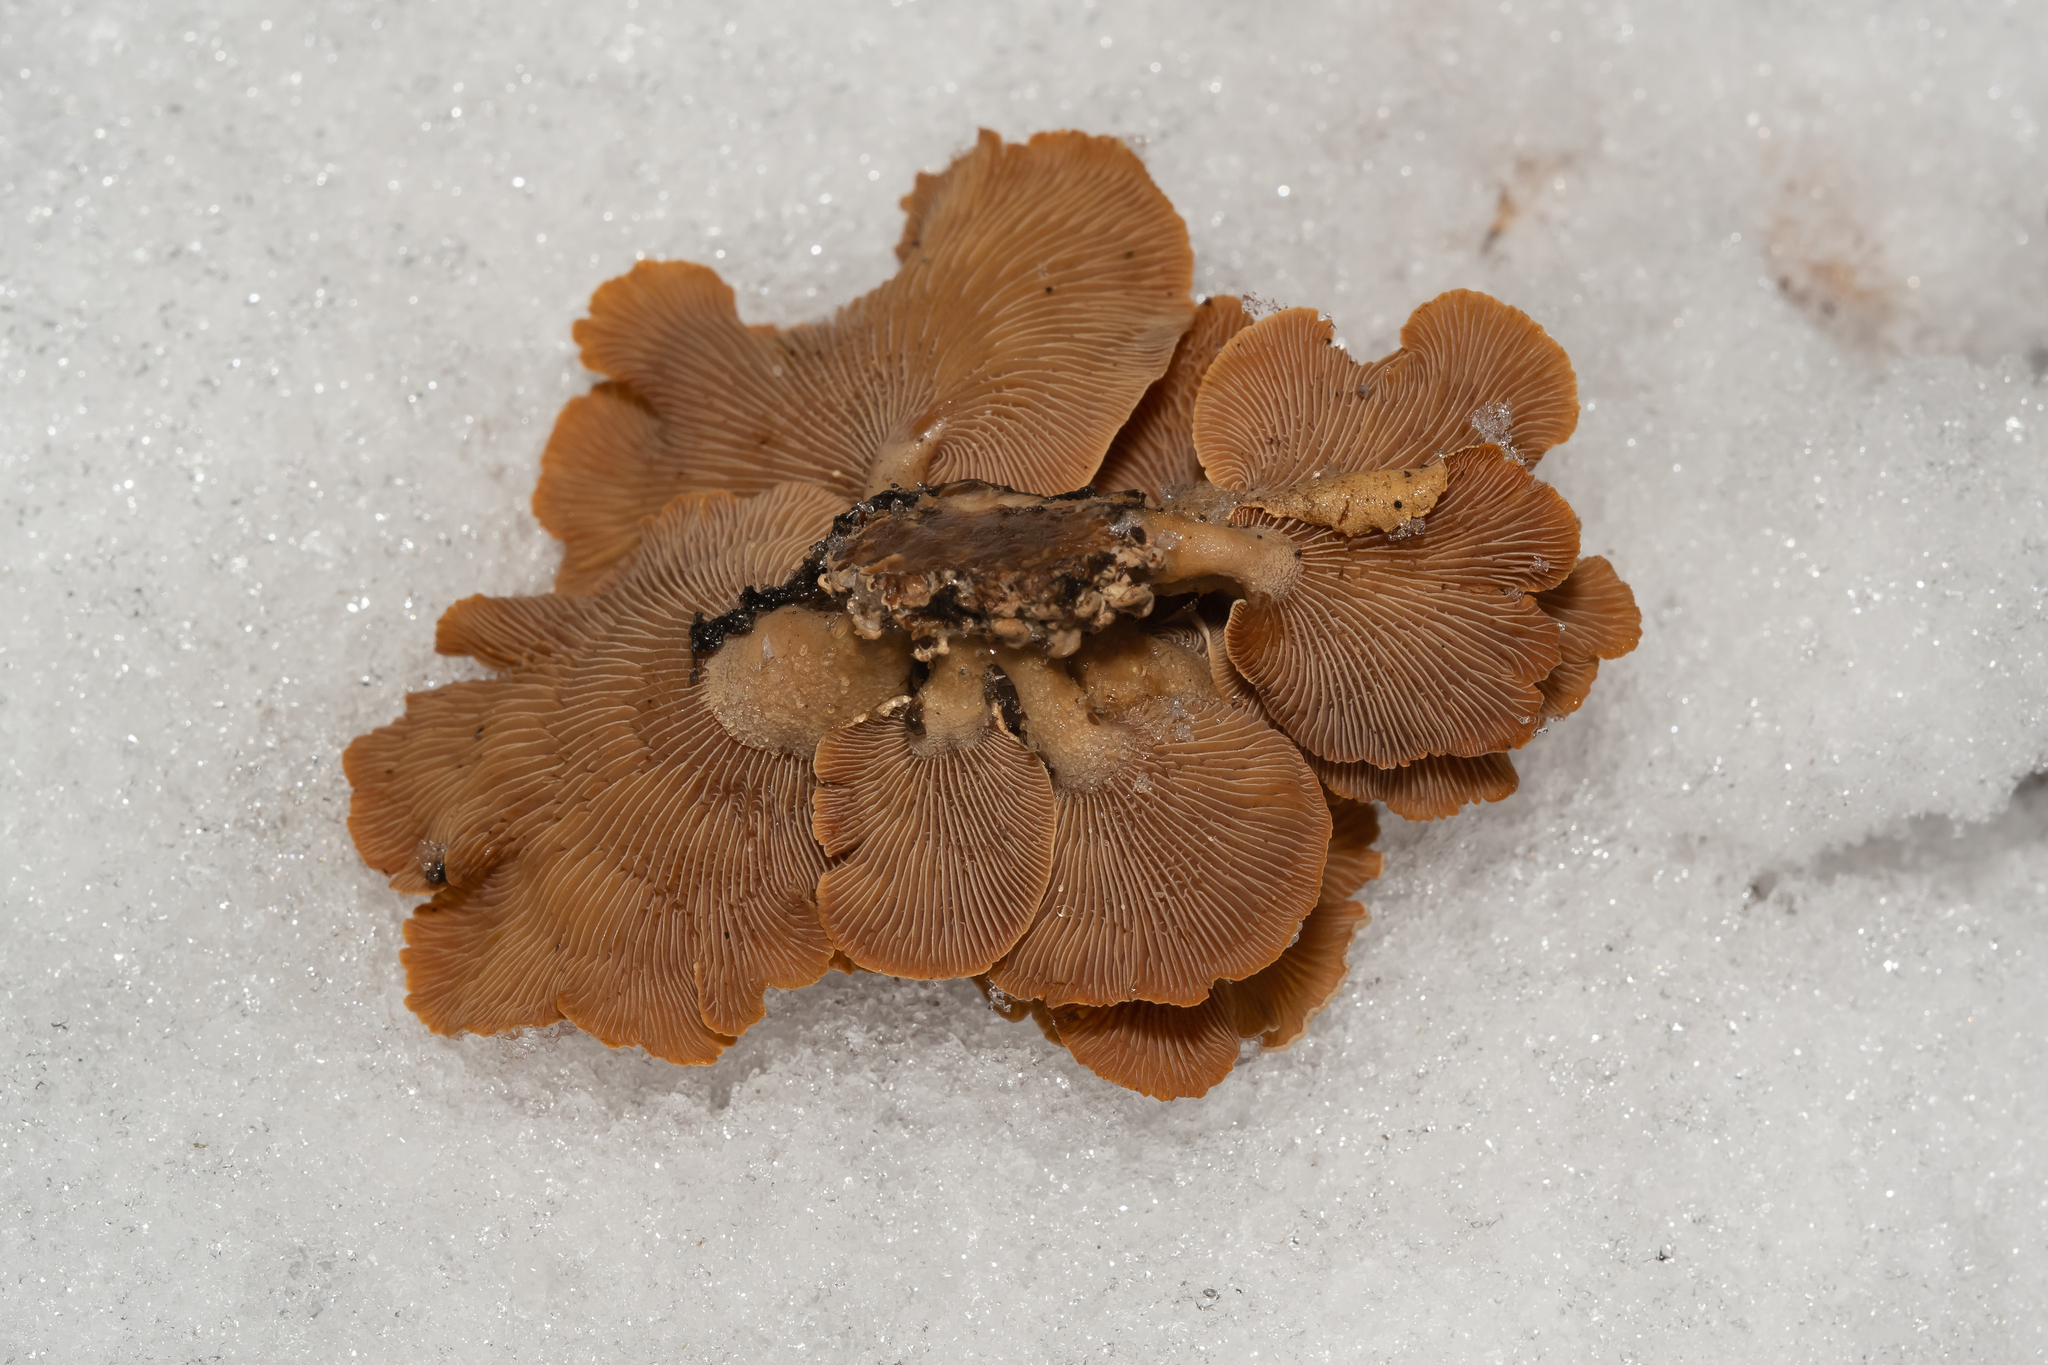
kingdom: Fungi
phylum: Basidiomycota
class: Agaricomycetes
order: Agaricales
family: Mycenaceae
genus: Panellus
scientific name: Panellus stipticus
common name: Bitter oysterling
